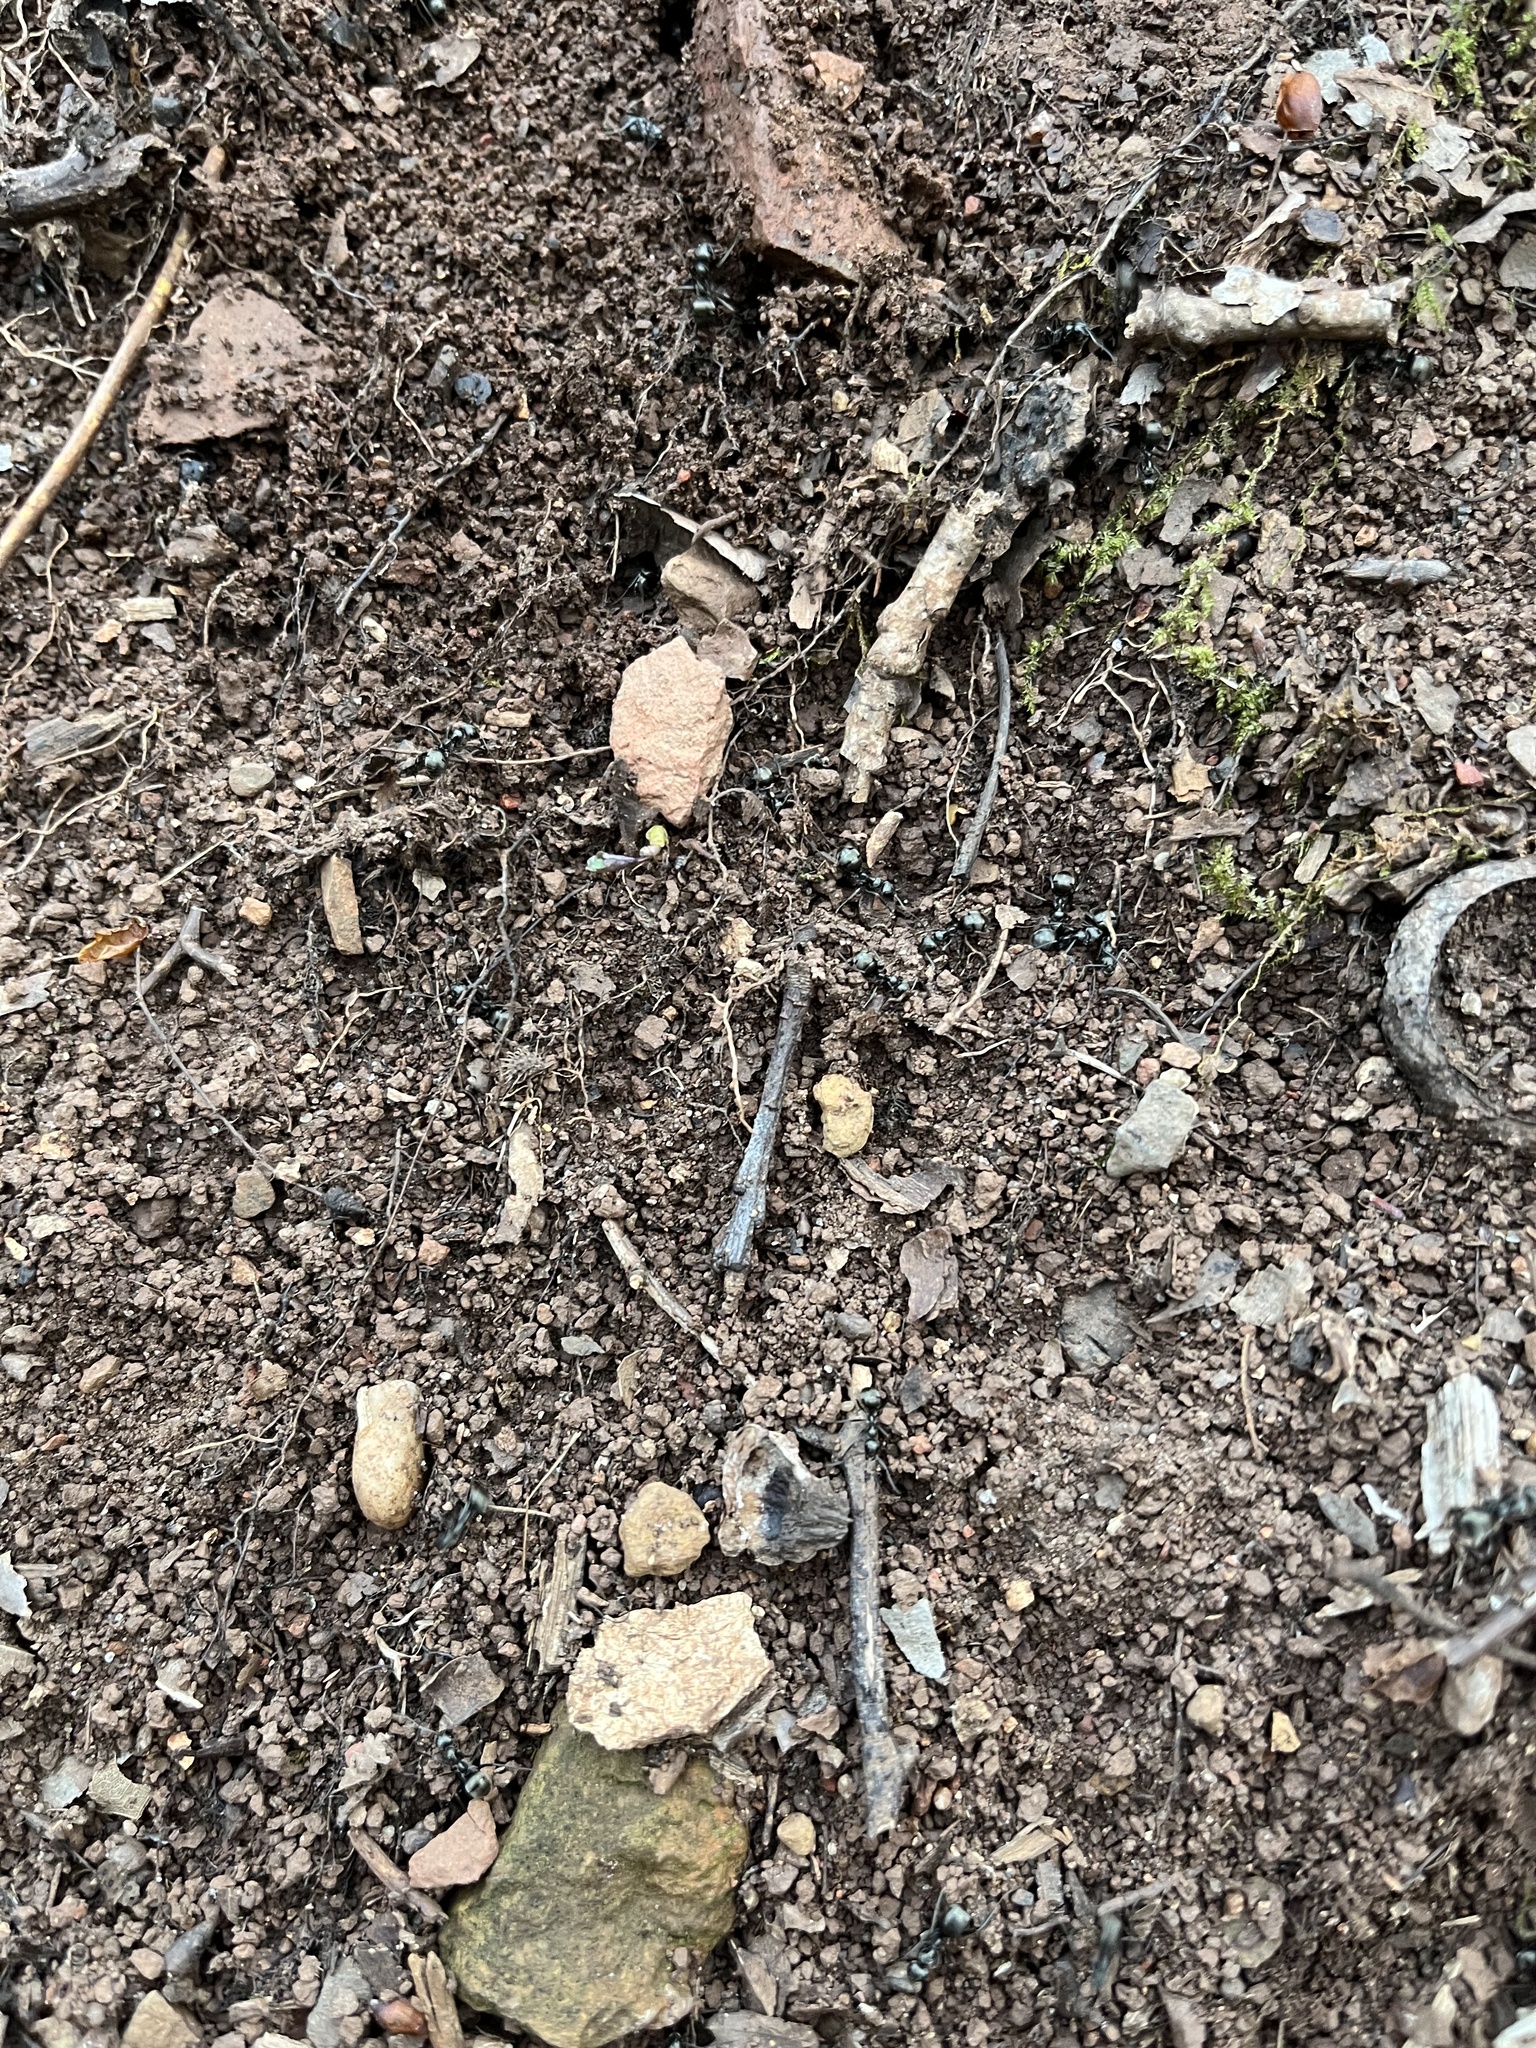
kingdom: Animalia
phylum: Arthropoda
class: Insecta
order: Hymenoptera
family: Formicidae
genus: Formica
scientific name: Formica subsericea
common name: Silky field ant
